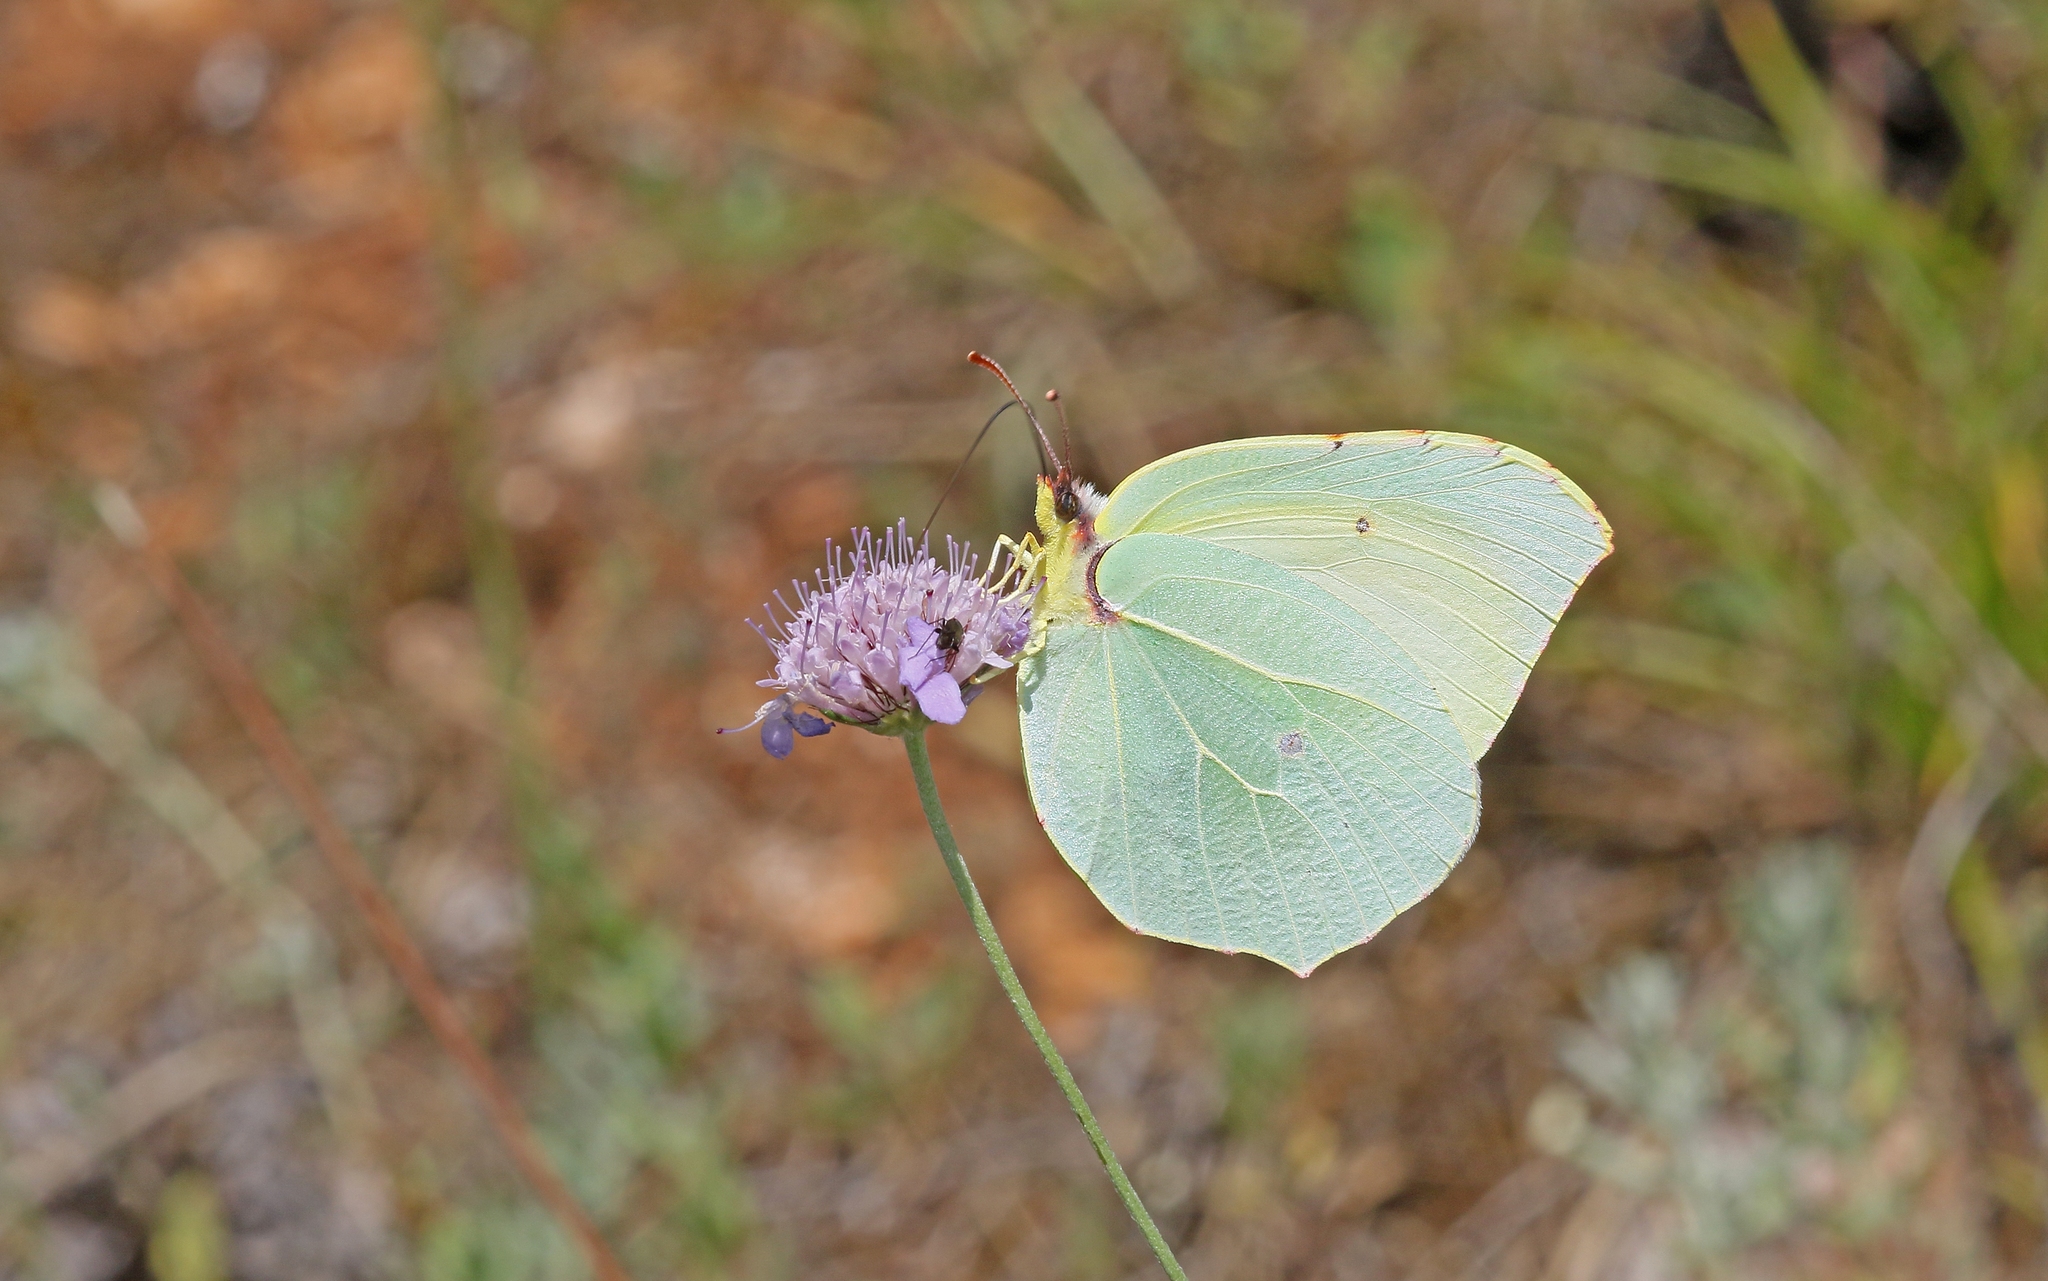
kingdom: Animalia
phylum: Arthropoda
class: Insecta
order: Lepidoptera
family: Pieridae
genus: Gonepteryx
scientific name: Gonepteryx cleopatra
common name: Cleopatra
